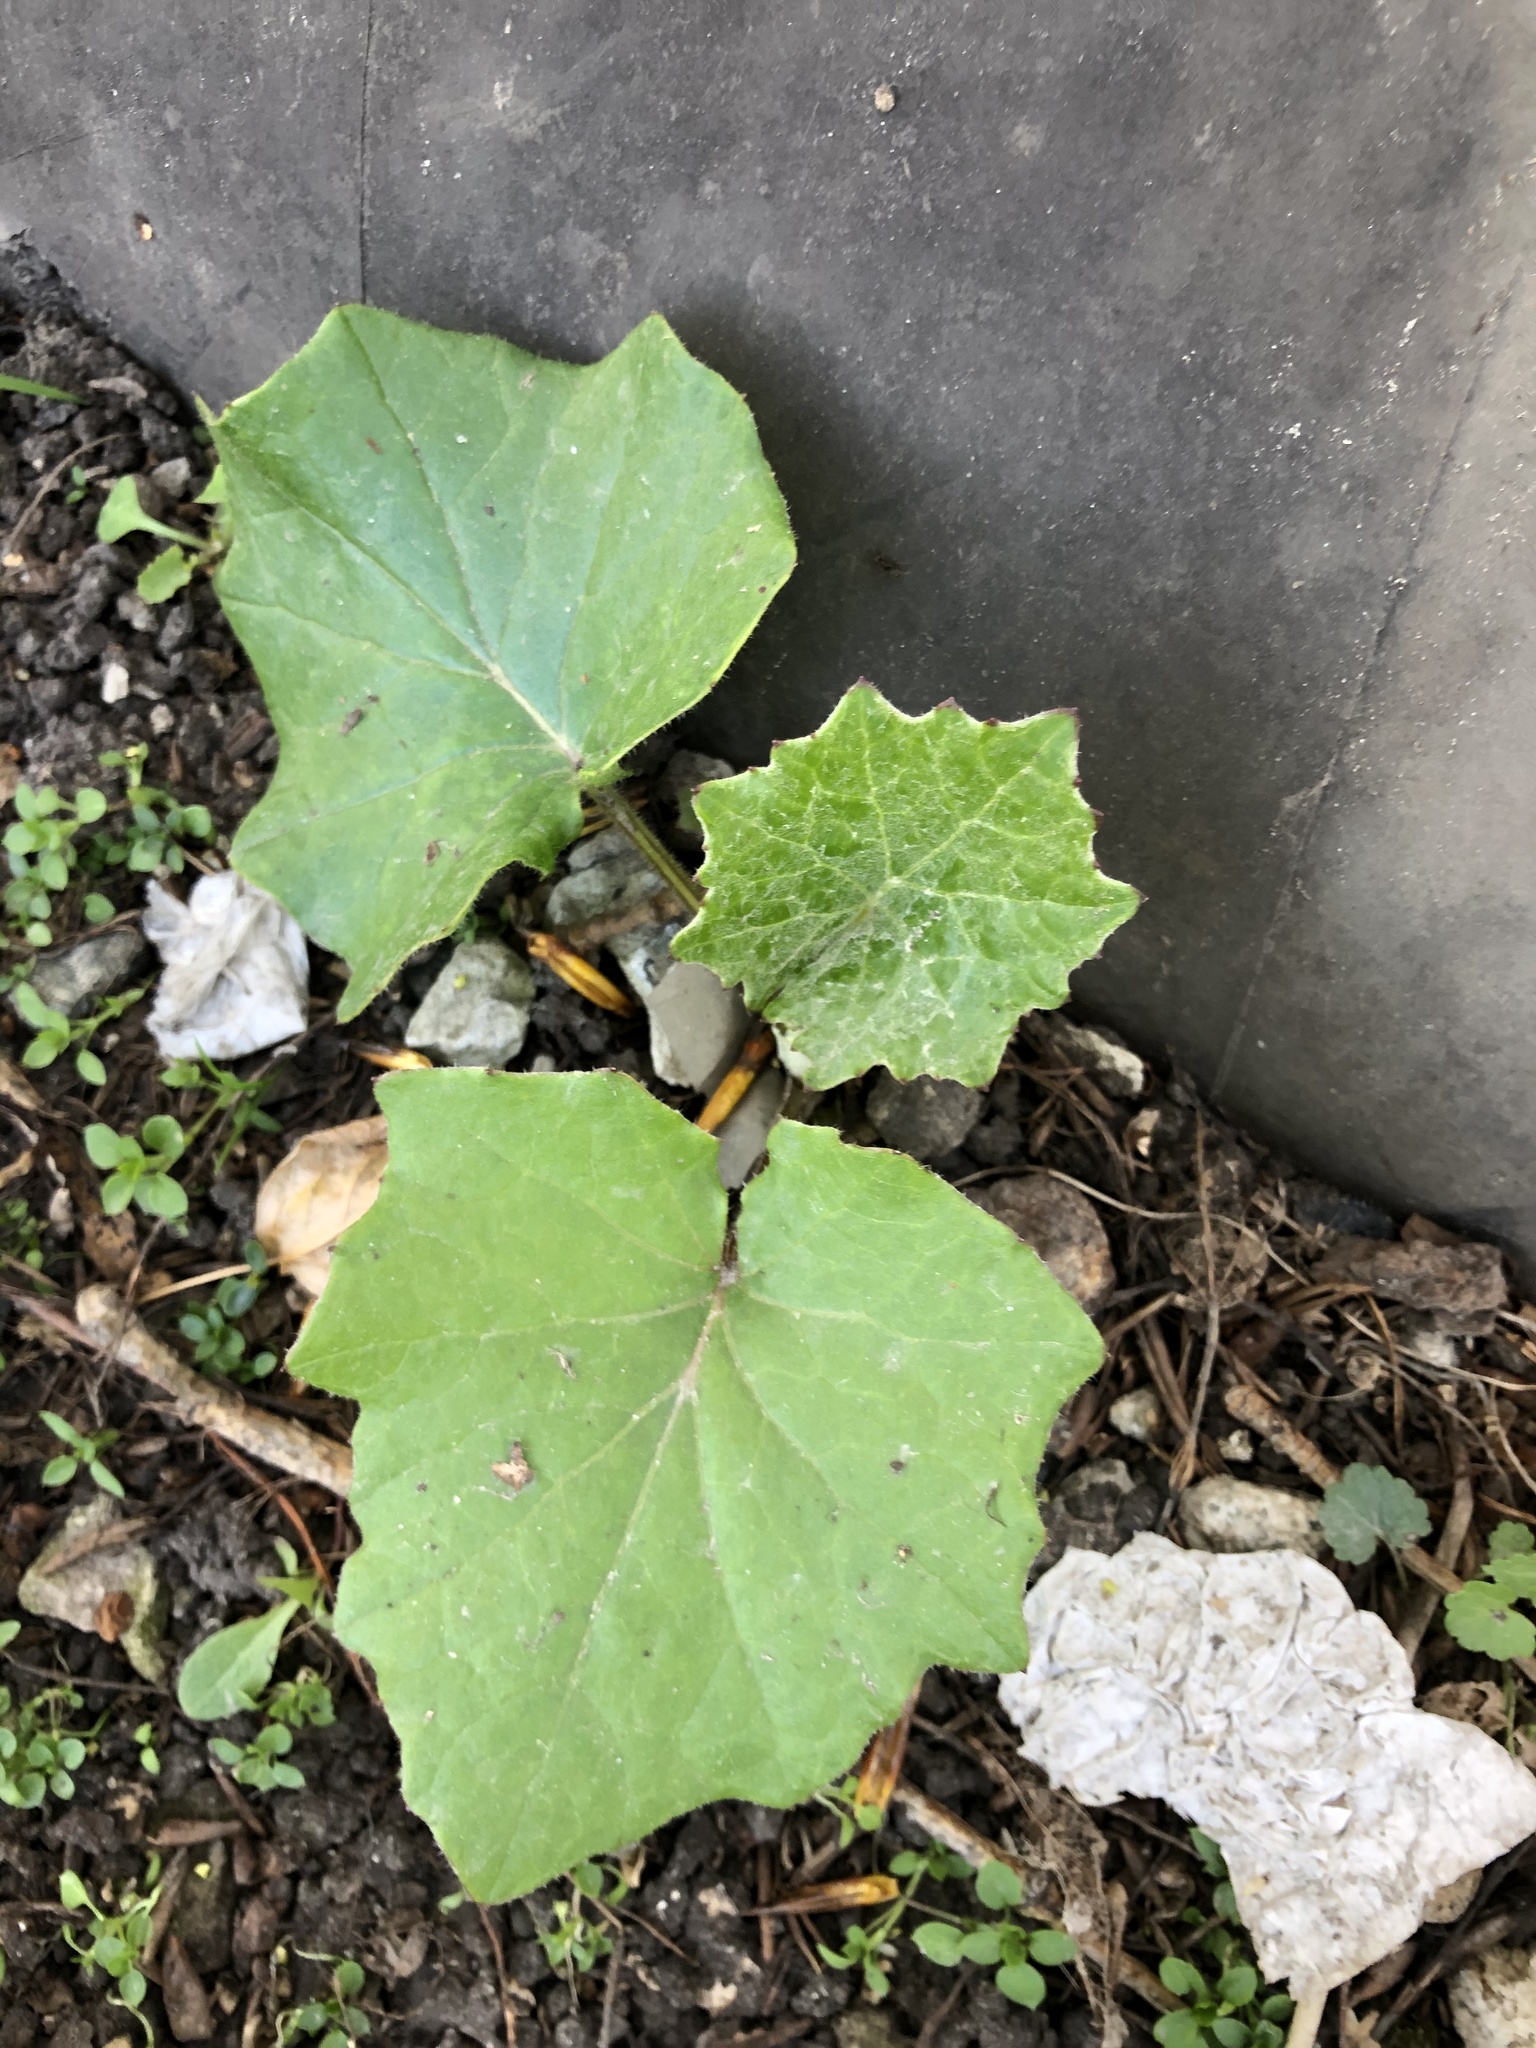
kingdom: Plantae
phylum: Tracheophyta
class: Magnoliopsida
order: Asterales
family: Asteraceae
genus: Tussilago
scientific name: Tussilago farfara
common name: Coltsfoot
